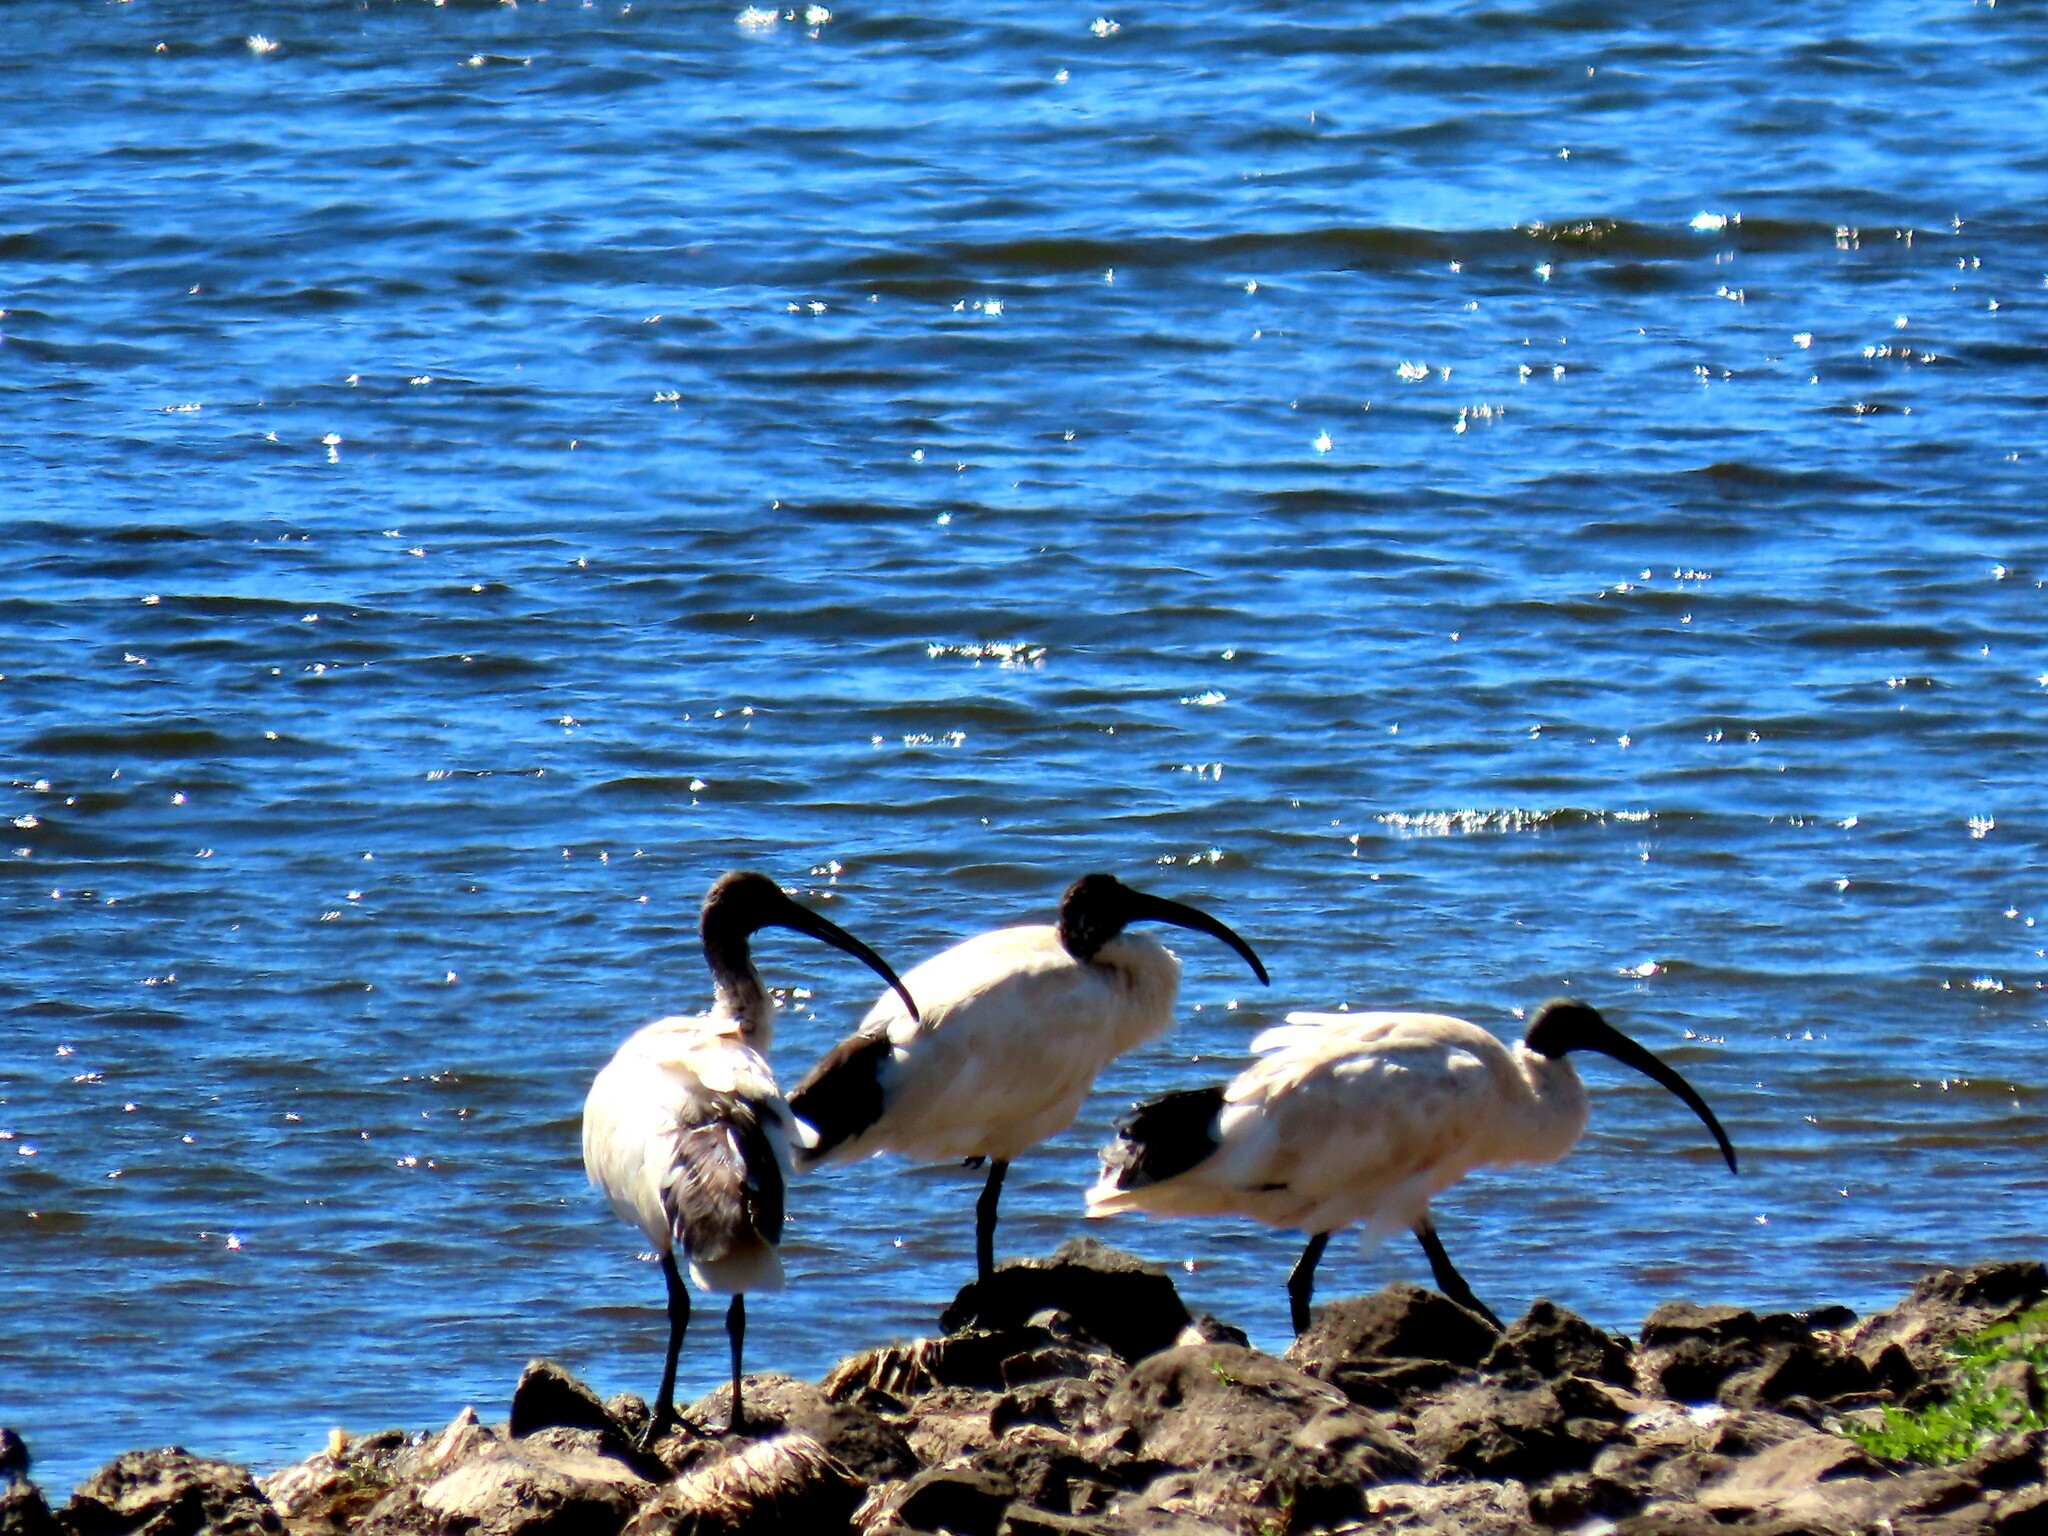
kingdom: Animalia
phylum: Chordata
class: Aves
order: Pelecaniformes
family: Threskiornithidae
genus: Threskiornis
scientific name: Threskiornis molucca
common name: Australian white ibis
